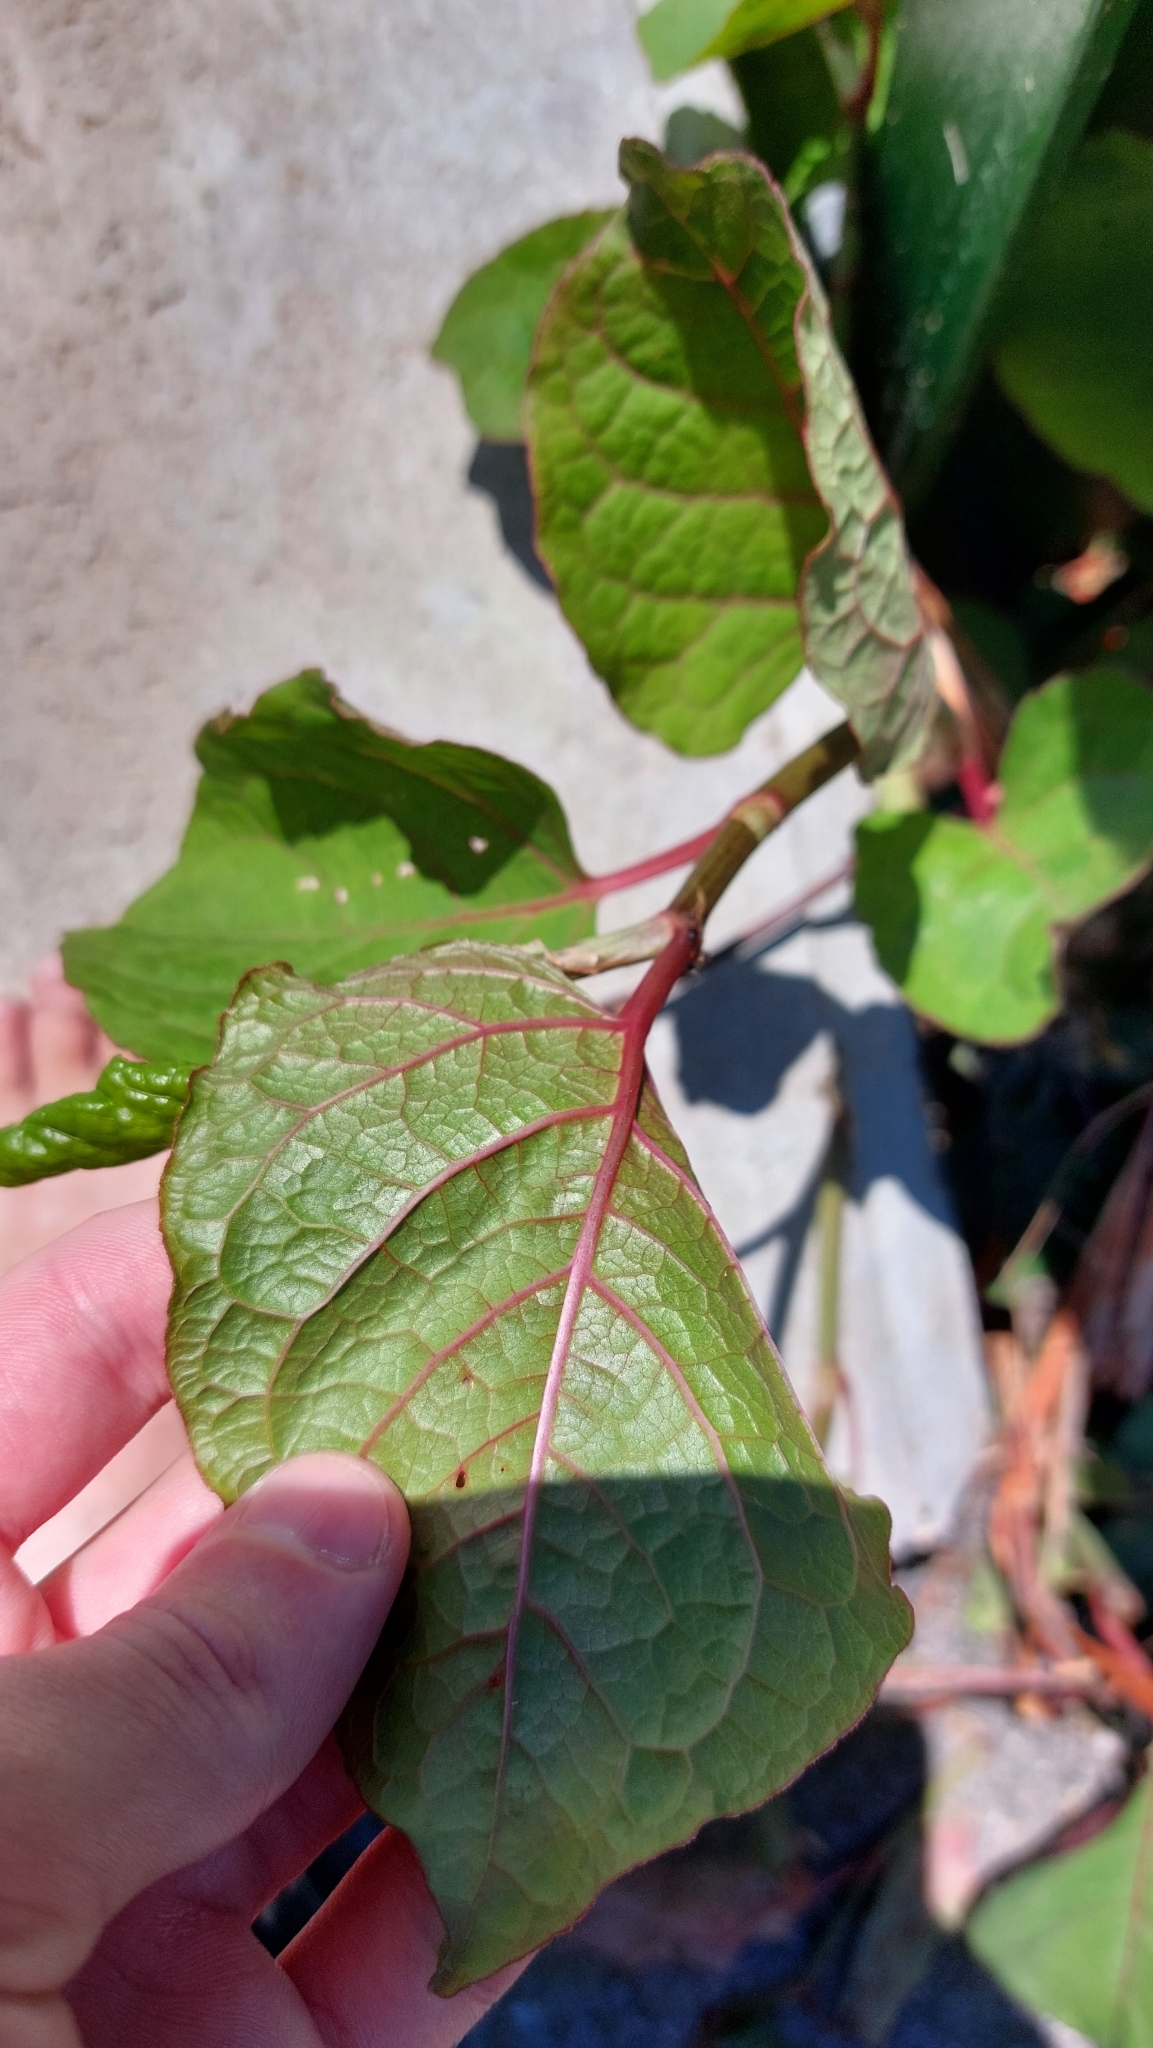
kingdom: Plantae
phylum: Tracheophyta
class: Magnoliopsida
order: Caryophyllales
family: Polygonaceae
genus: Reynoutria
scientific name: Reynoutria bohemica
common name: Bohemian knotweed
